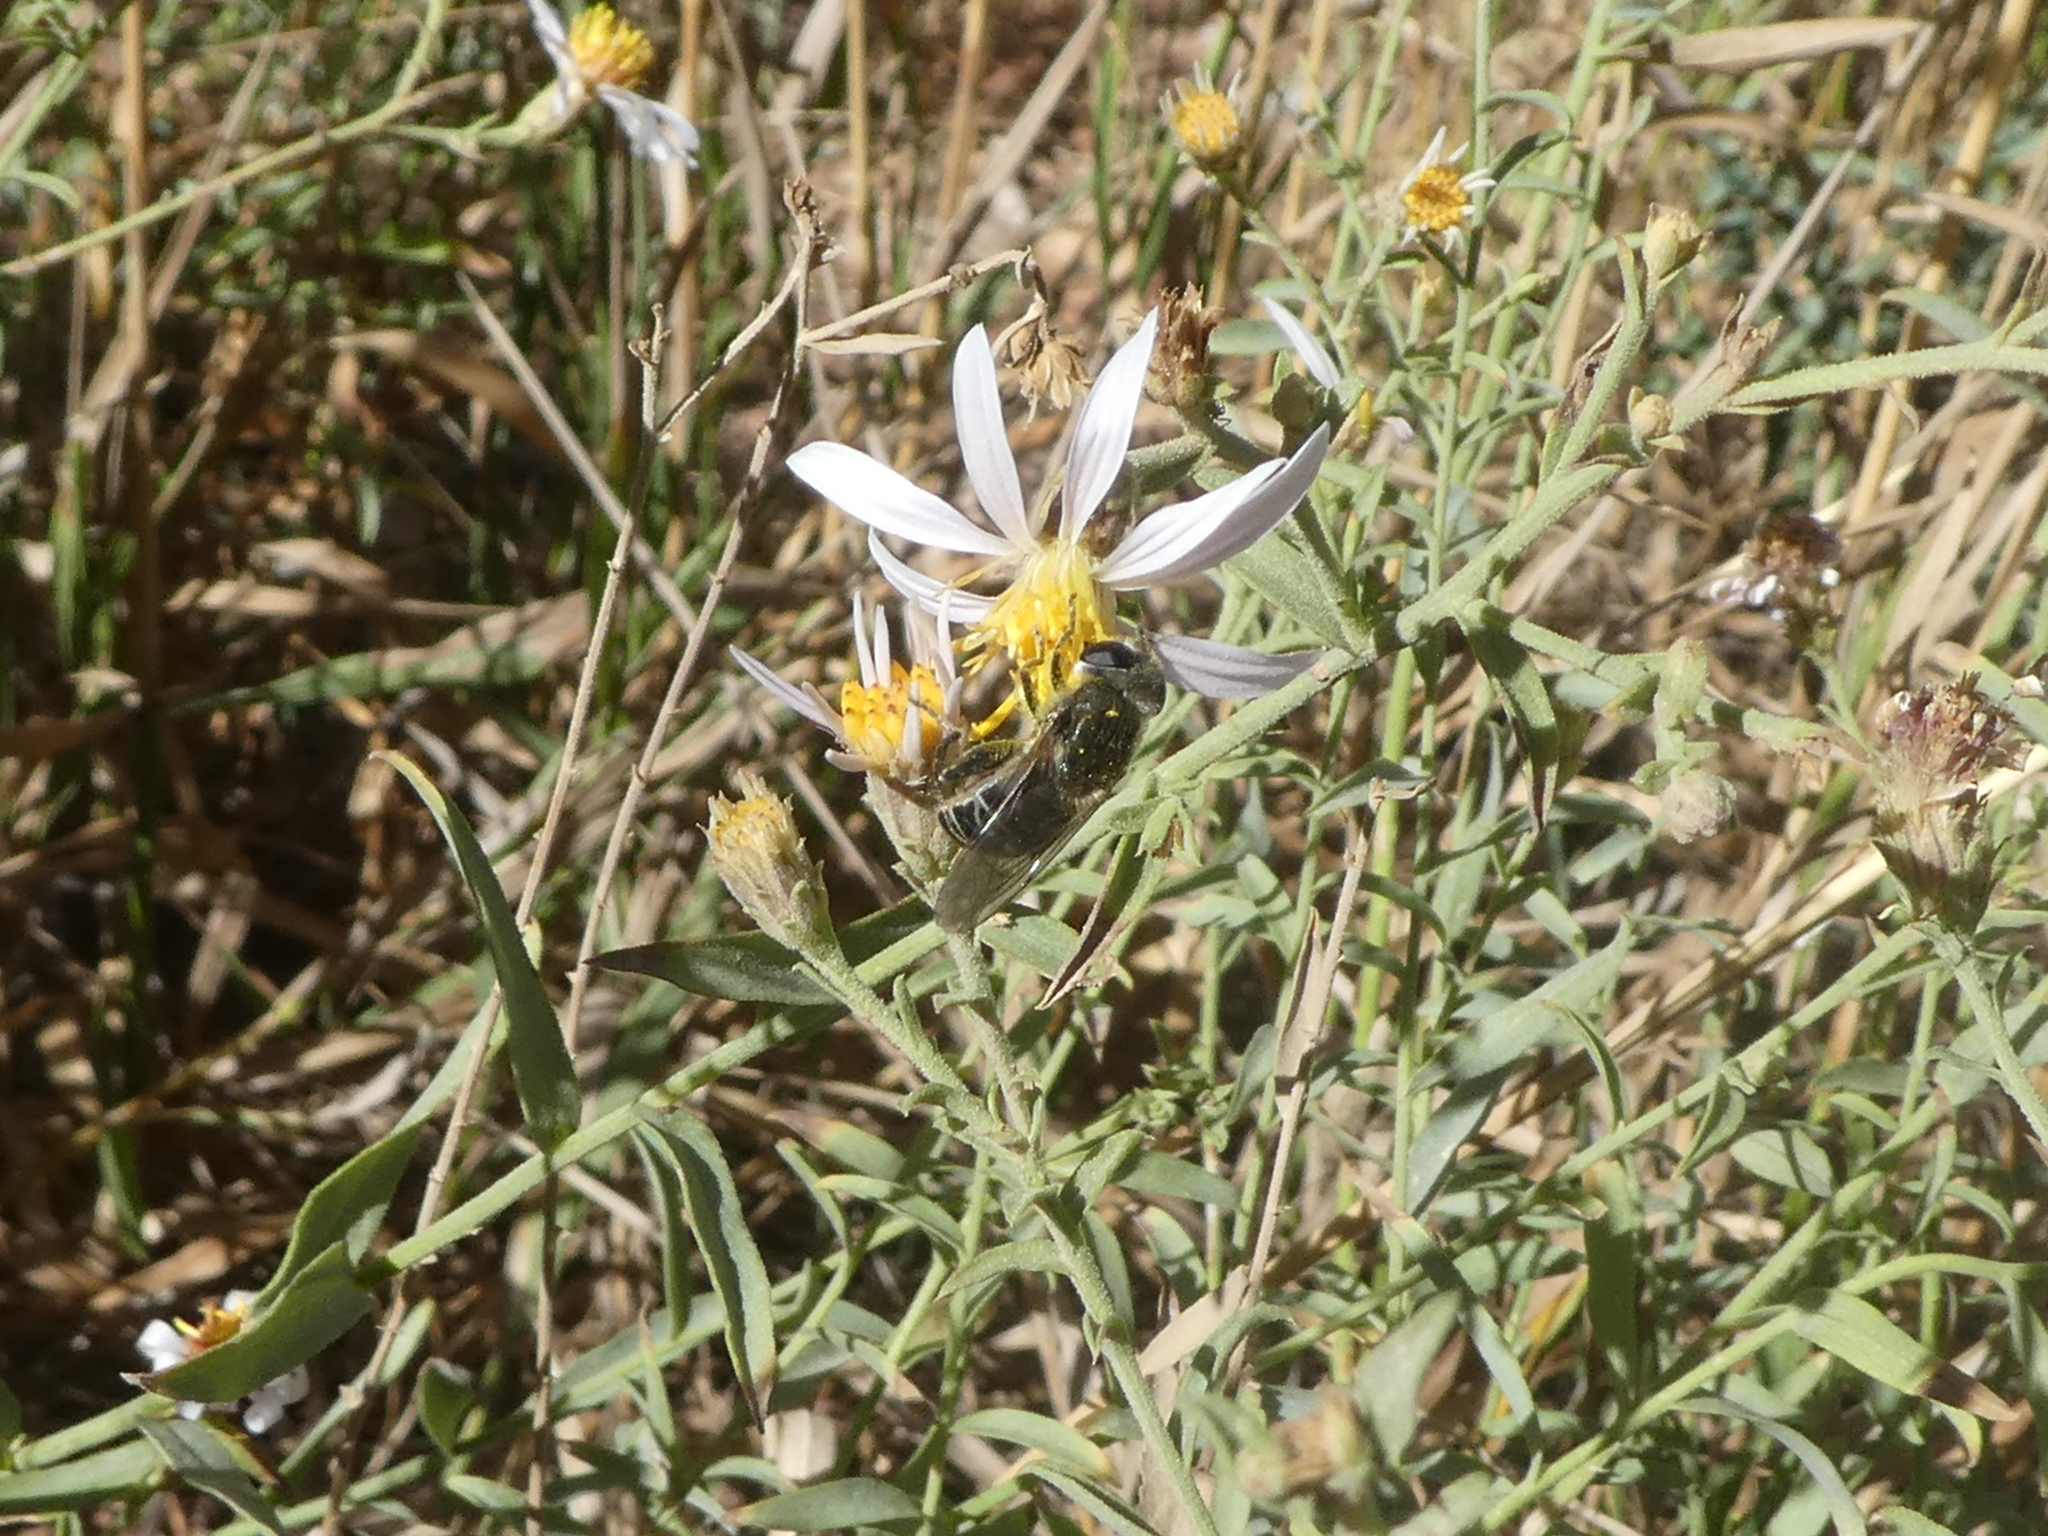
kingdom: Animalia
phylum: Arthropoda
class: Insecta
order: Diptera
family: Syrphidae
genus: Asemosyrphus
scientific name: Asemosyrphus polygrammus
